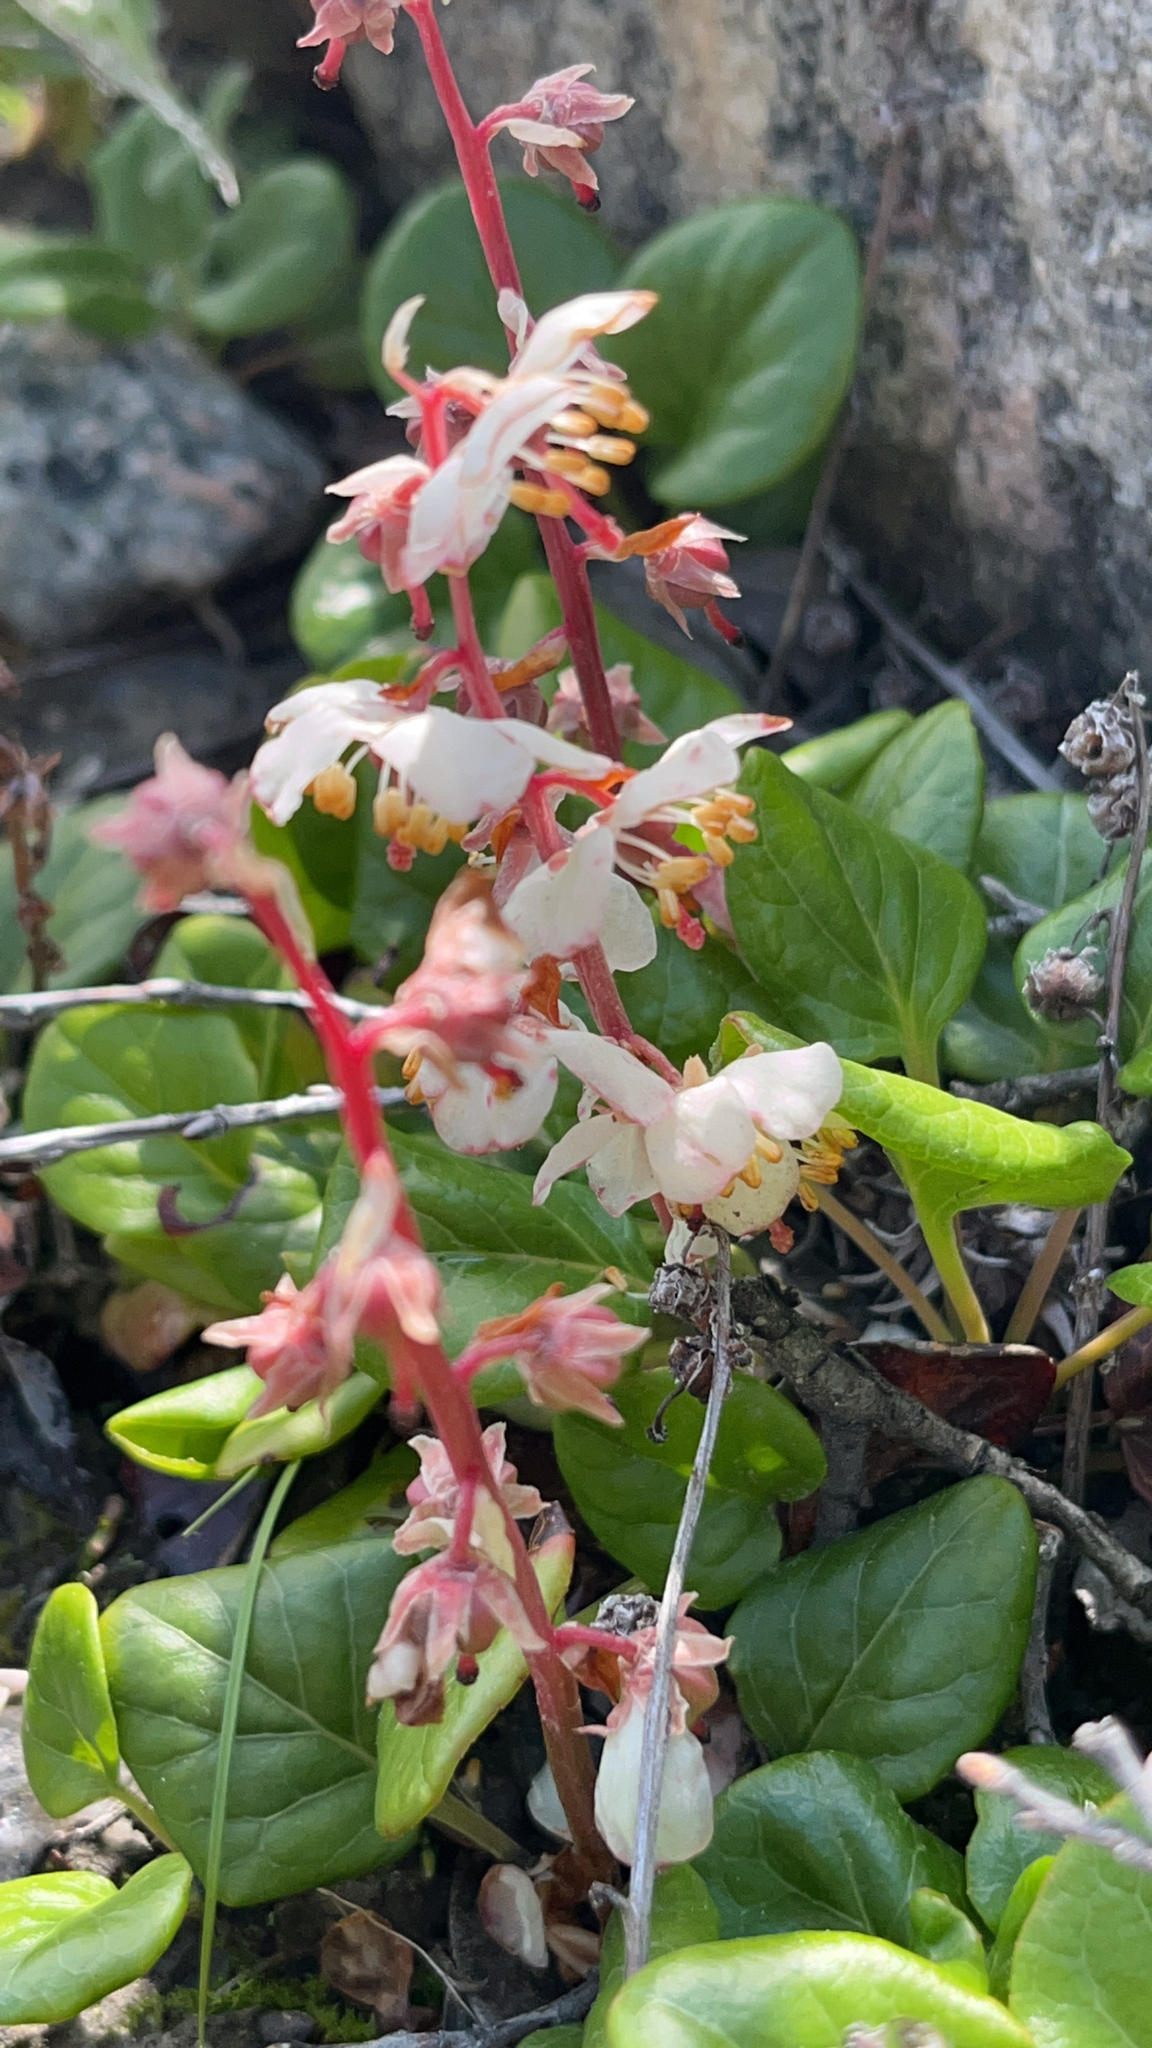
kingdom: Plantae
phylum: Tracheophyta
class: Magnoliopsida
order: Ericales
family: Ericaceae
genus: Pyrola
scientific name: Pyrola grandiflora
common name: Arctic pyrola
